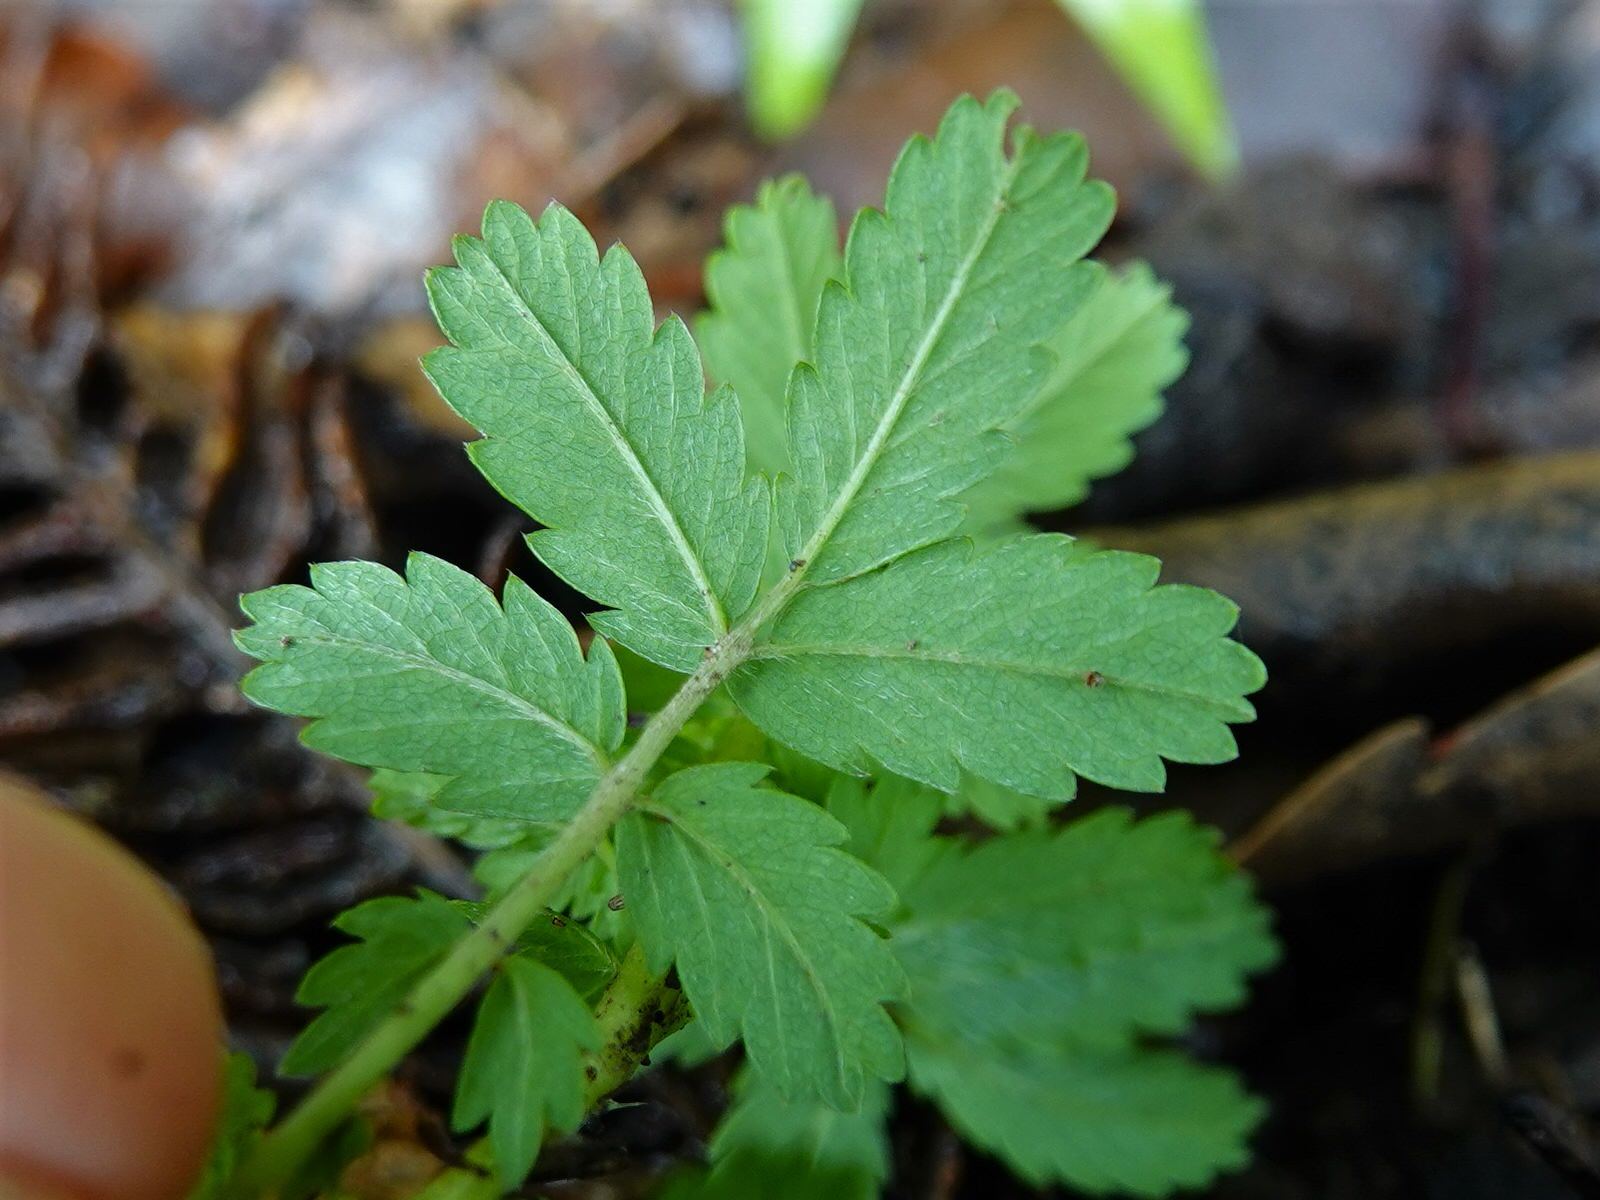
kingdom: Plantae
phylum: Tracheophyta
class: Magnoliopsida
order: Rosales
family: Rosaceae
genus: Acaena
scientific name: Acaena novae-zelandiae
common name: Pirri-pirri-bur
